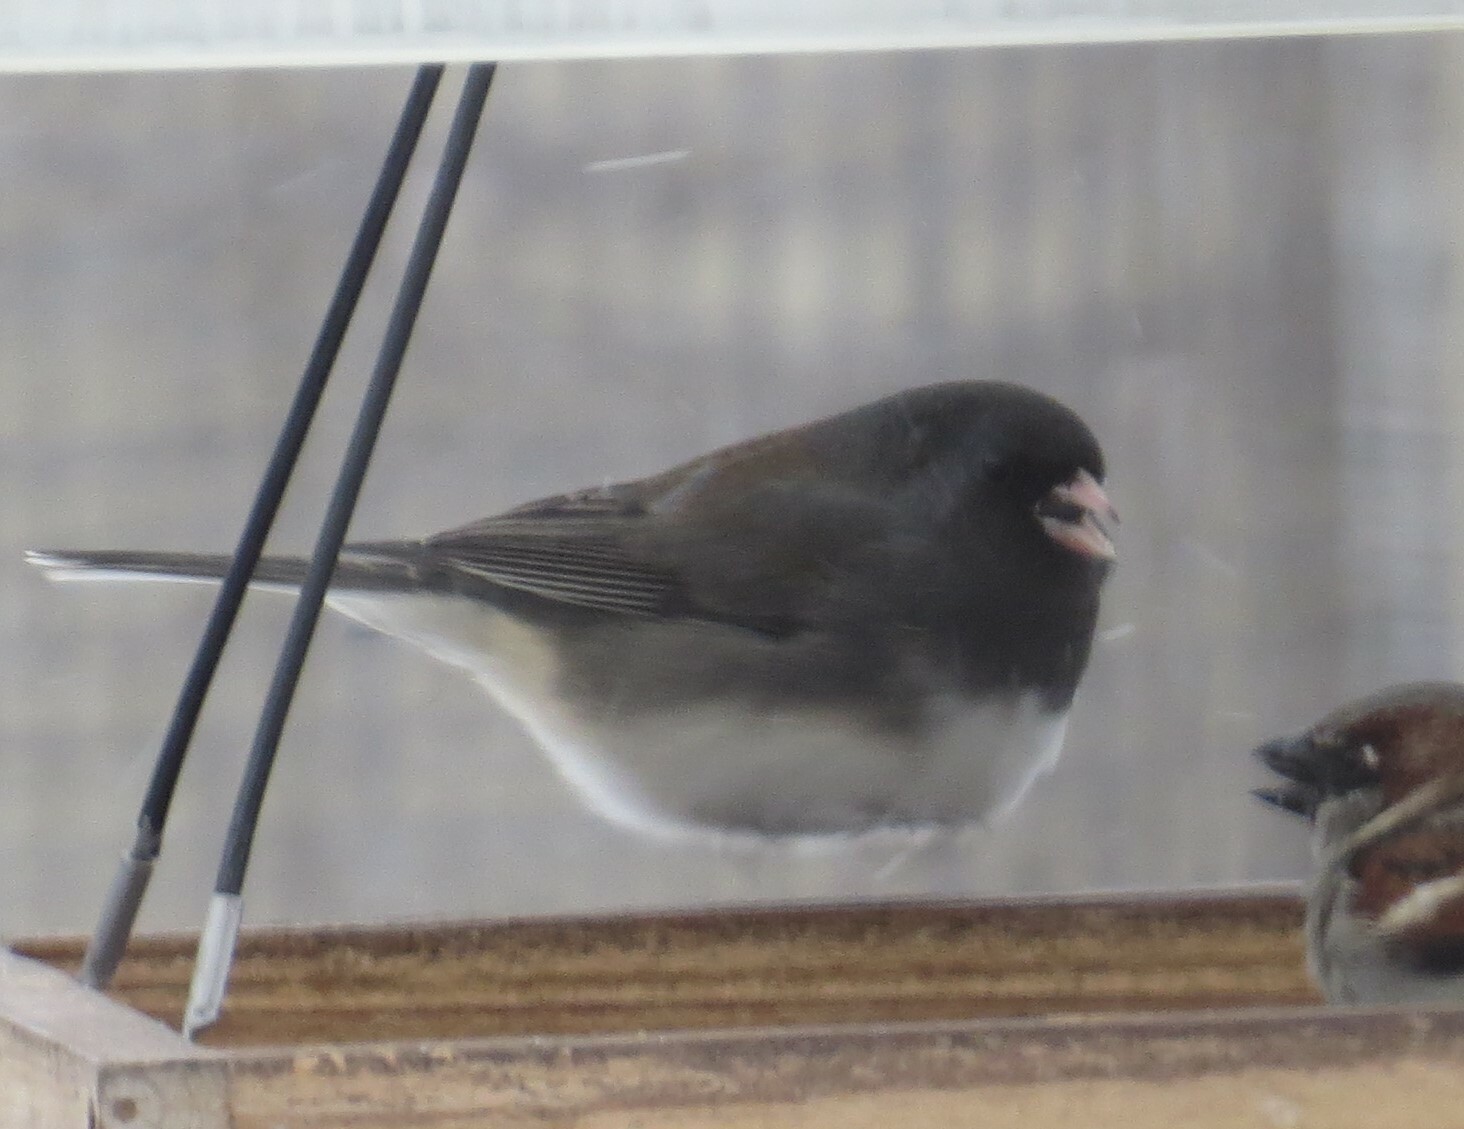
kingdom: Animalia
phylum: Chordata
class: Aves
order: Passeriformes
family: Passerellidae
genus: Junco
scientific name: Junco hyemalis
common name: Dark-eyed junco
